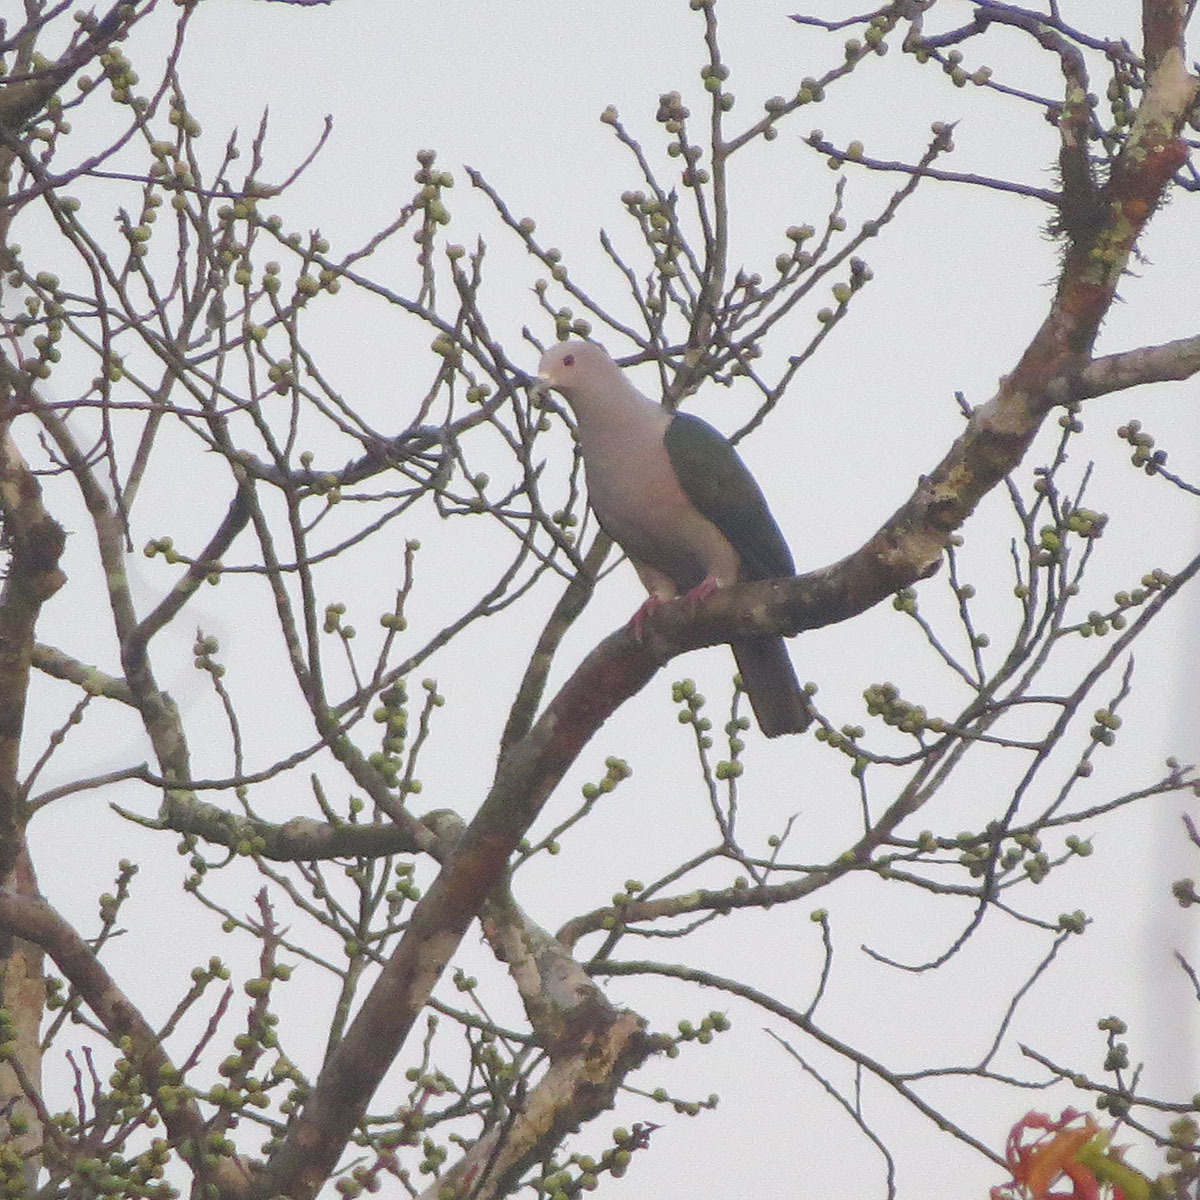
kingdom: Animalia
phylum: Chordata
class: Aves
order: Columbiformes
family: Columbidae
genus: Ducula
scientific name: Ducula aenea
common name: Green imperial pigeon
